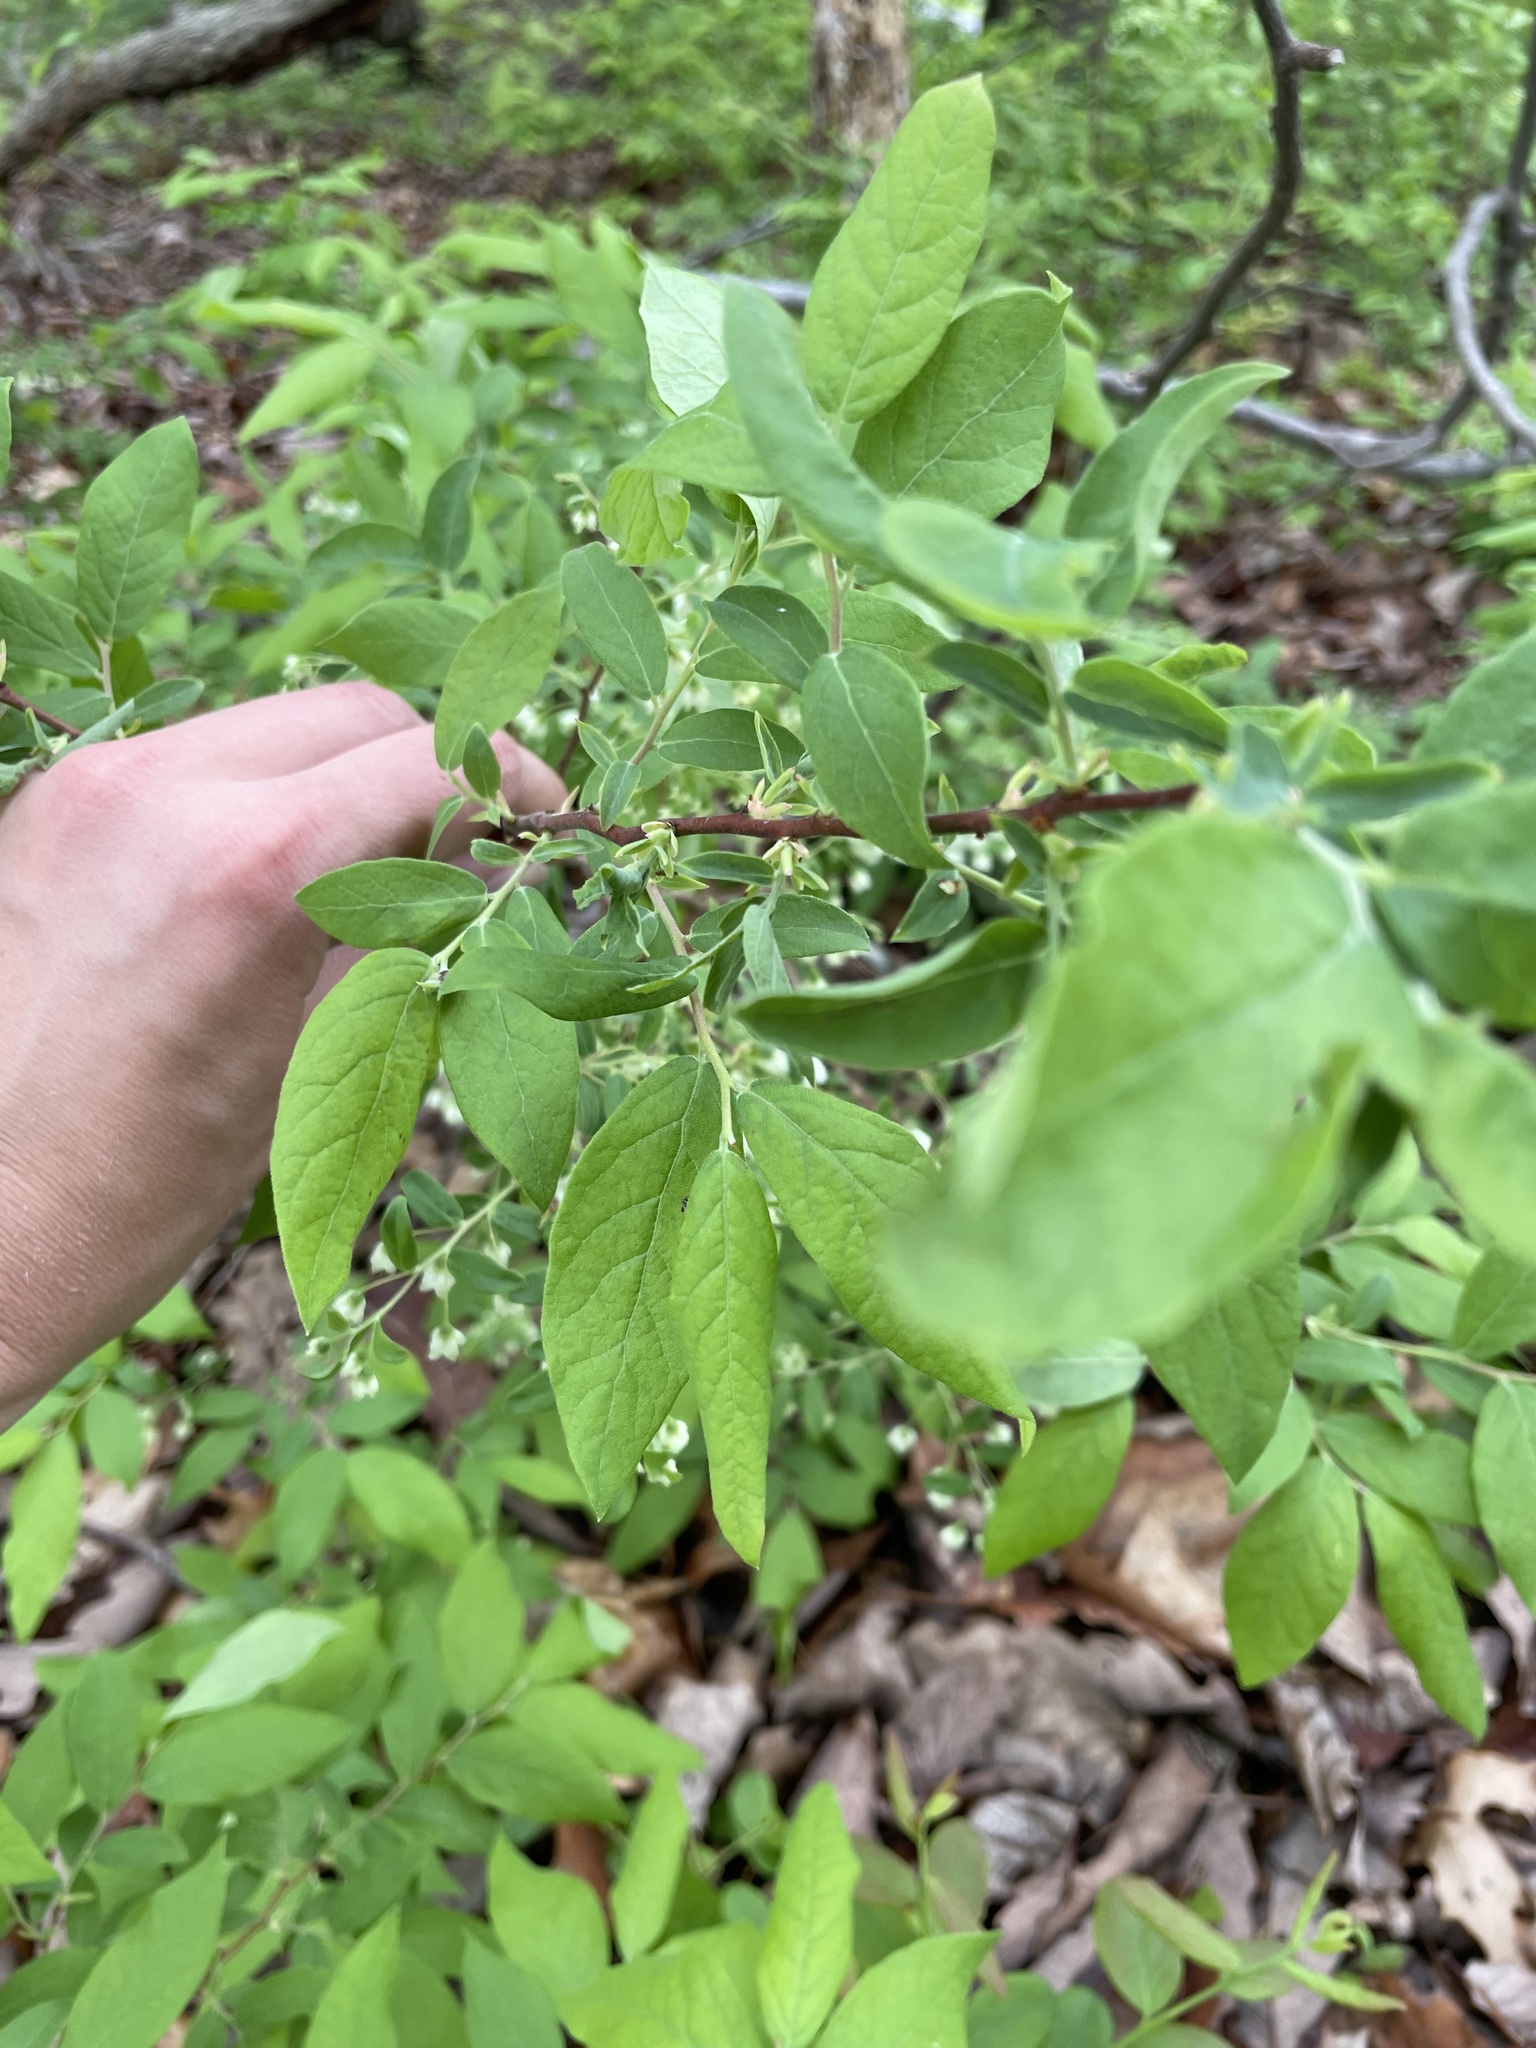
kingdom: Plantae
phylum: Tracheophyta
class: Magnoliopsida
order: Ericales
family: Ericaceae
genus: Vaccinium
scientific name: Vaccinium stamineum
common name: Deerberry
